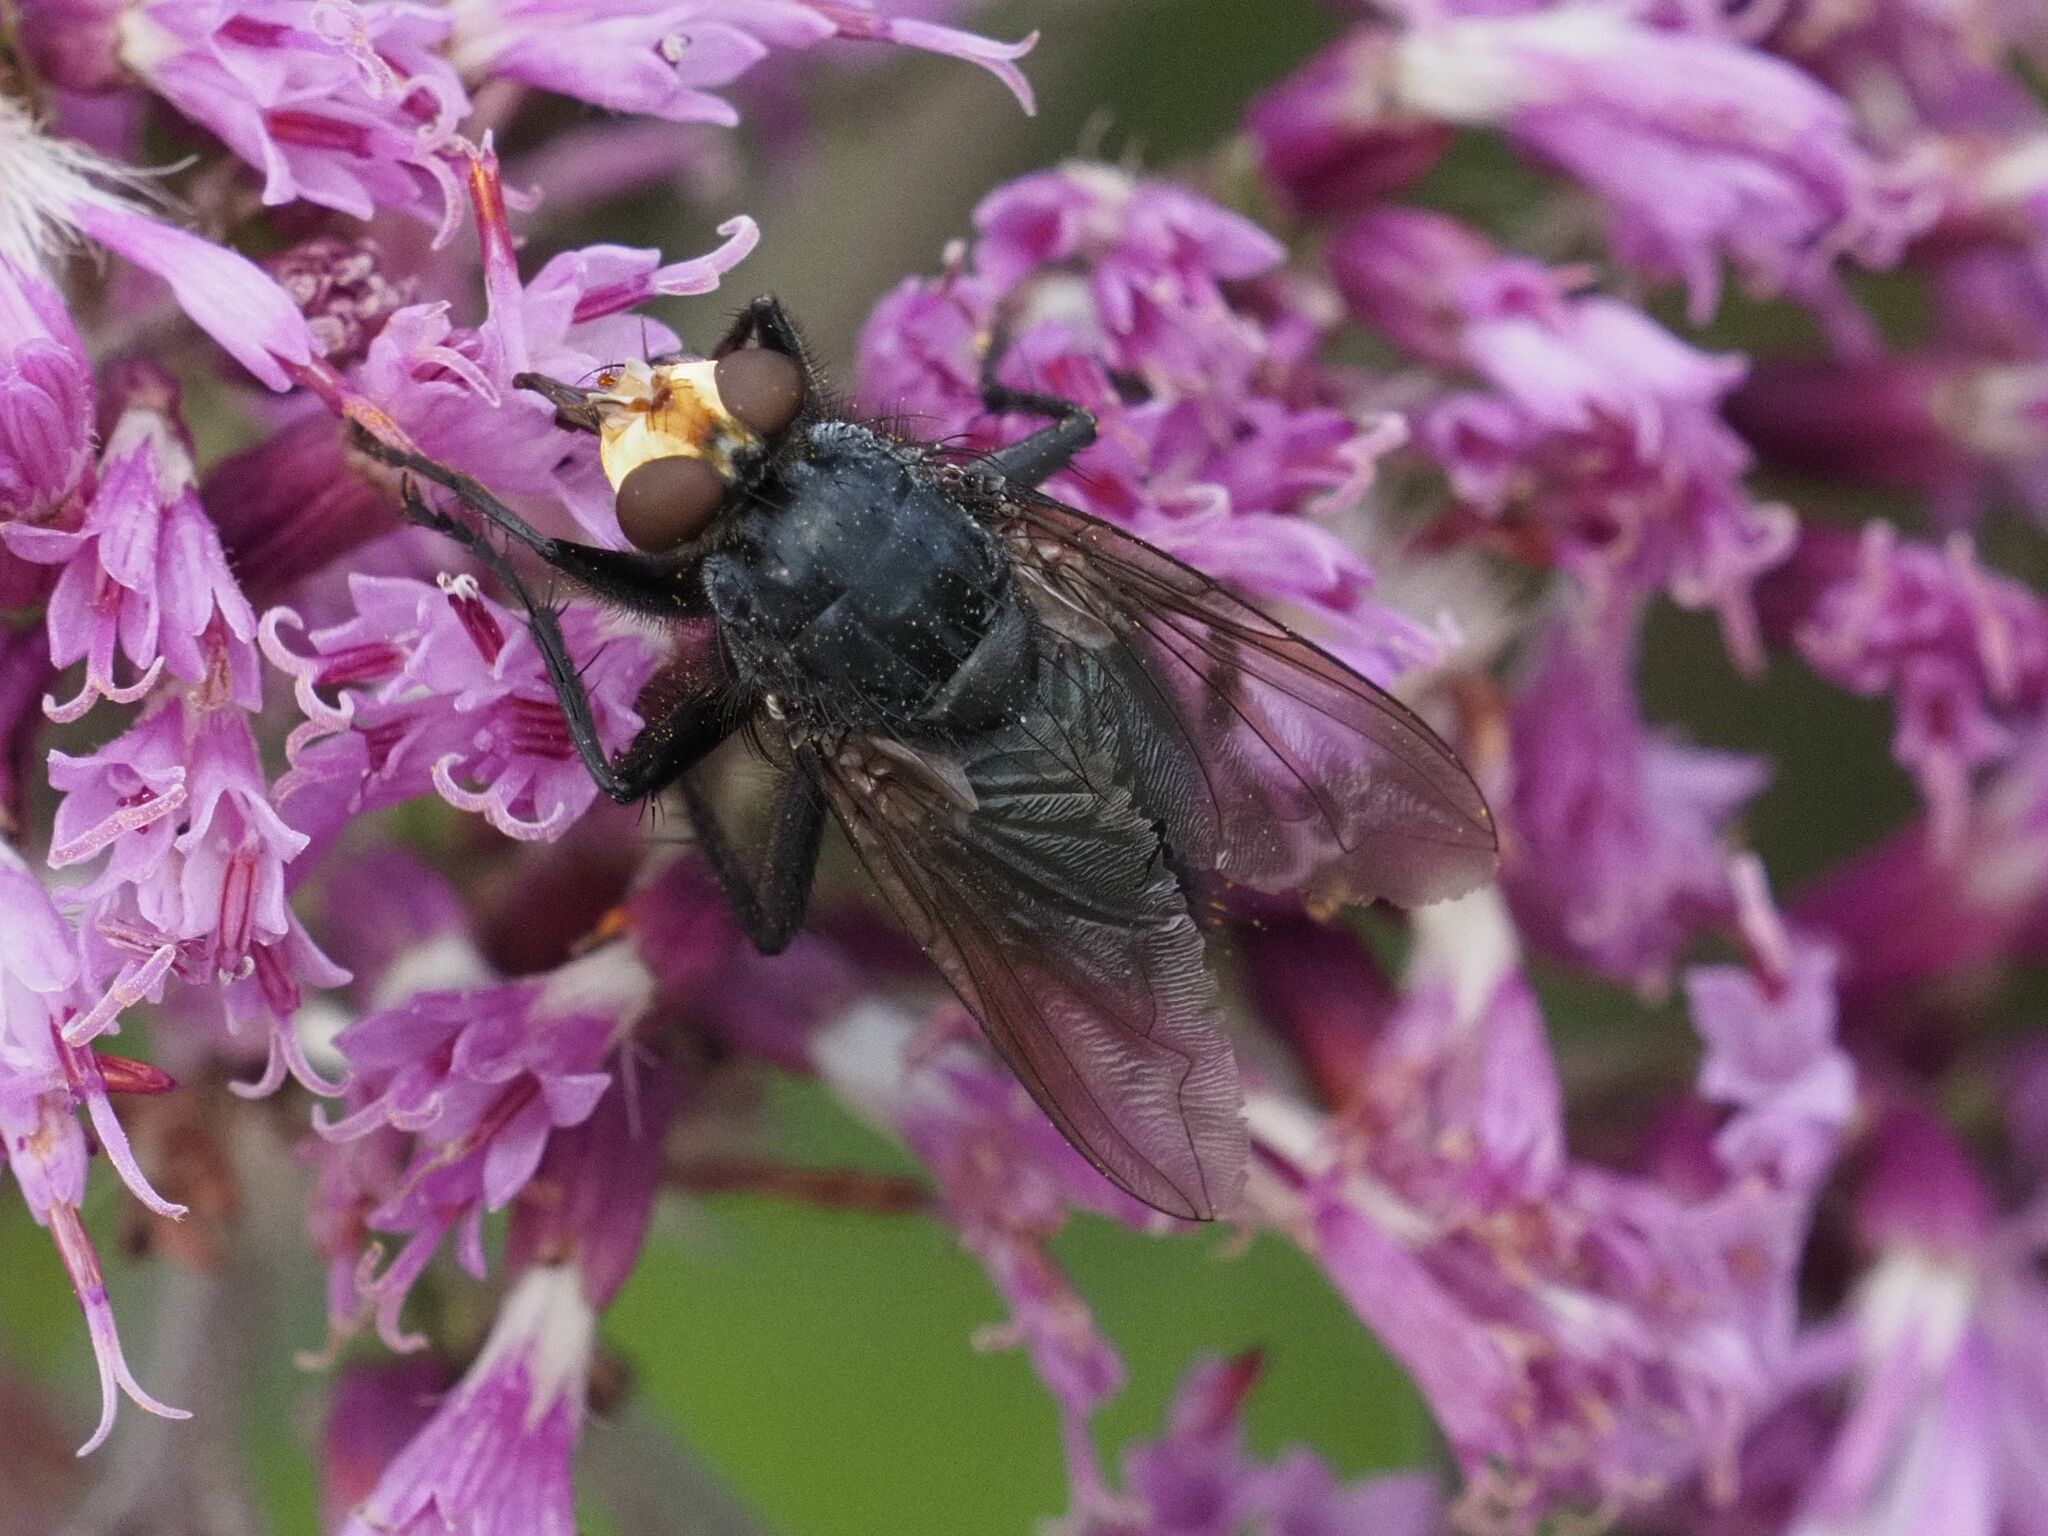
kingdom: Animalia
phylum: Arthropoda
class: Insecta
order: Diptera
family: Calliphoridae
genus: Cynomya
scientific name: Cynomya mortuorum
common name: Bluebottle blow fly
